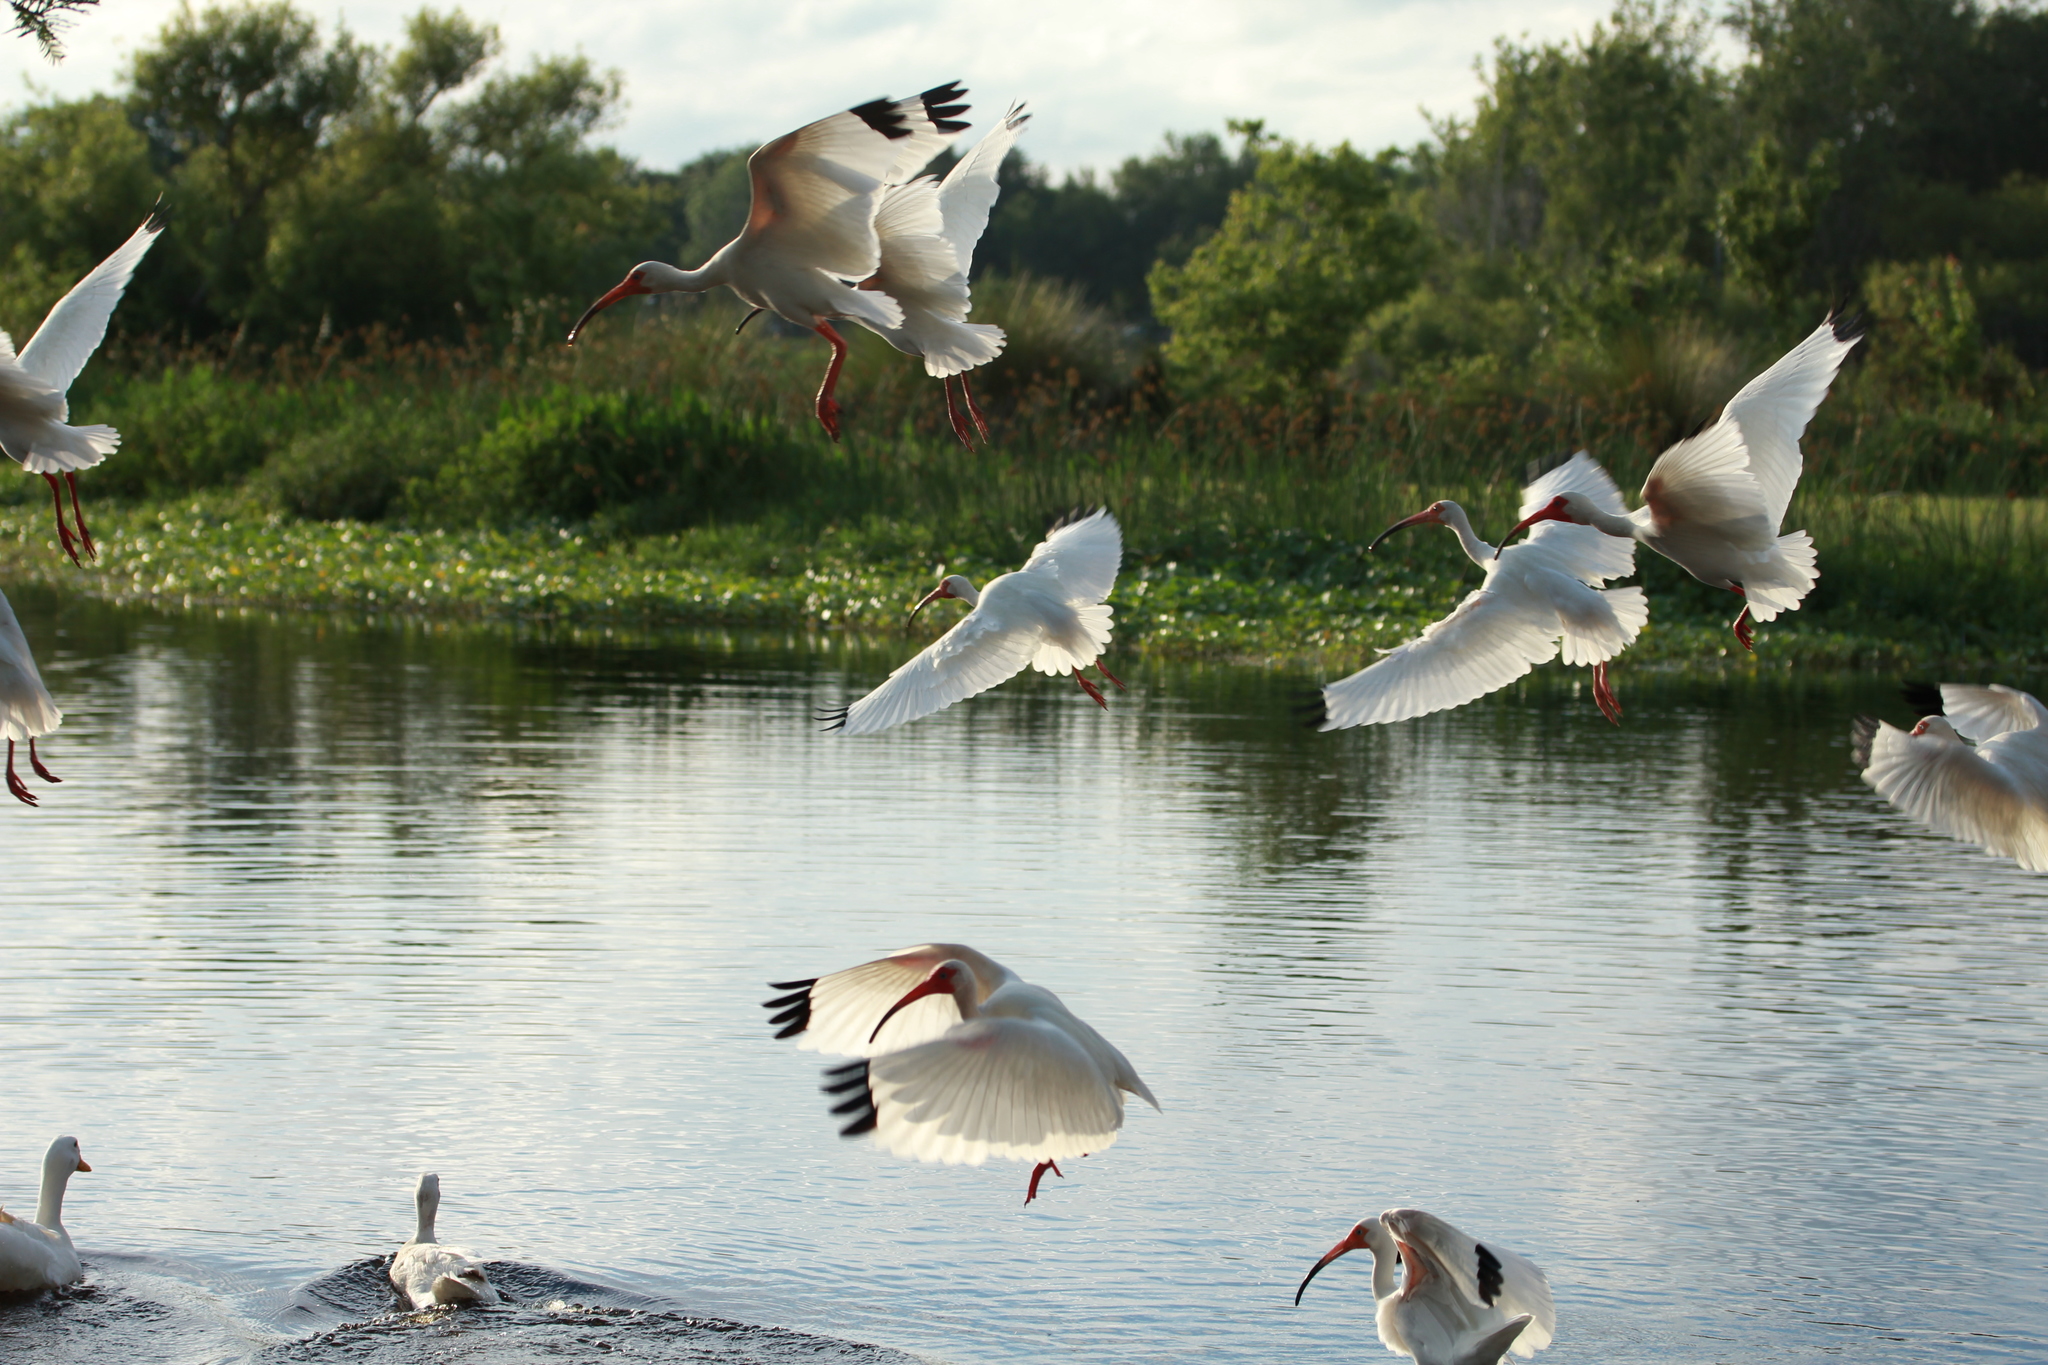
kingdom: Animalia
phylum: Chordata
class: Aves
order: Pelecaniformes
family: Threskiornithidae
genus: Eudocimus
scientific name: Eudocimus albus
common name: White ibis
